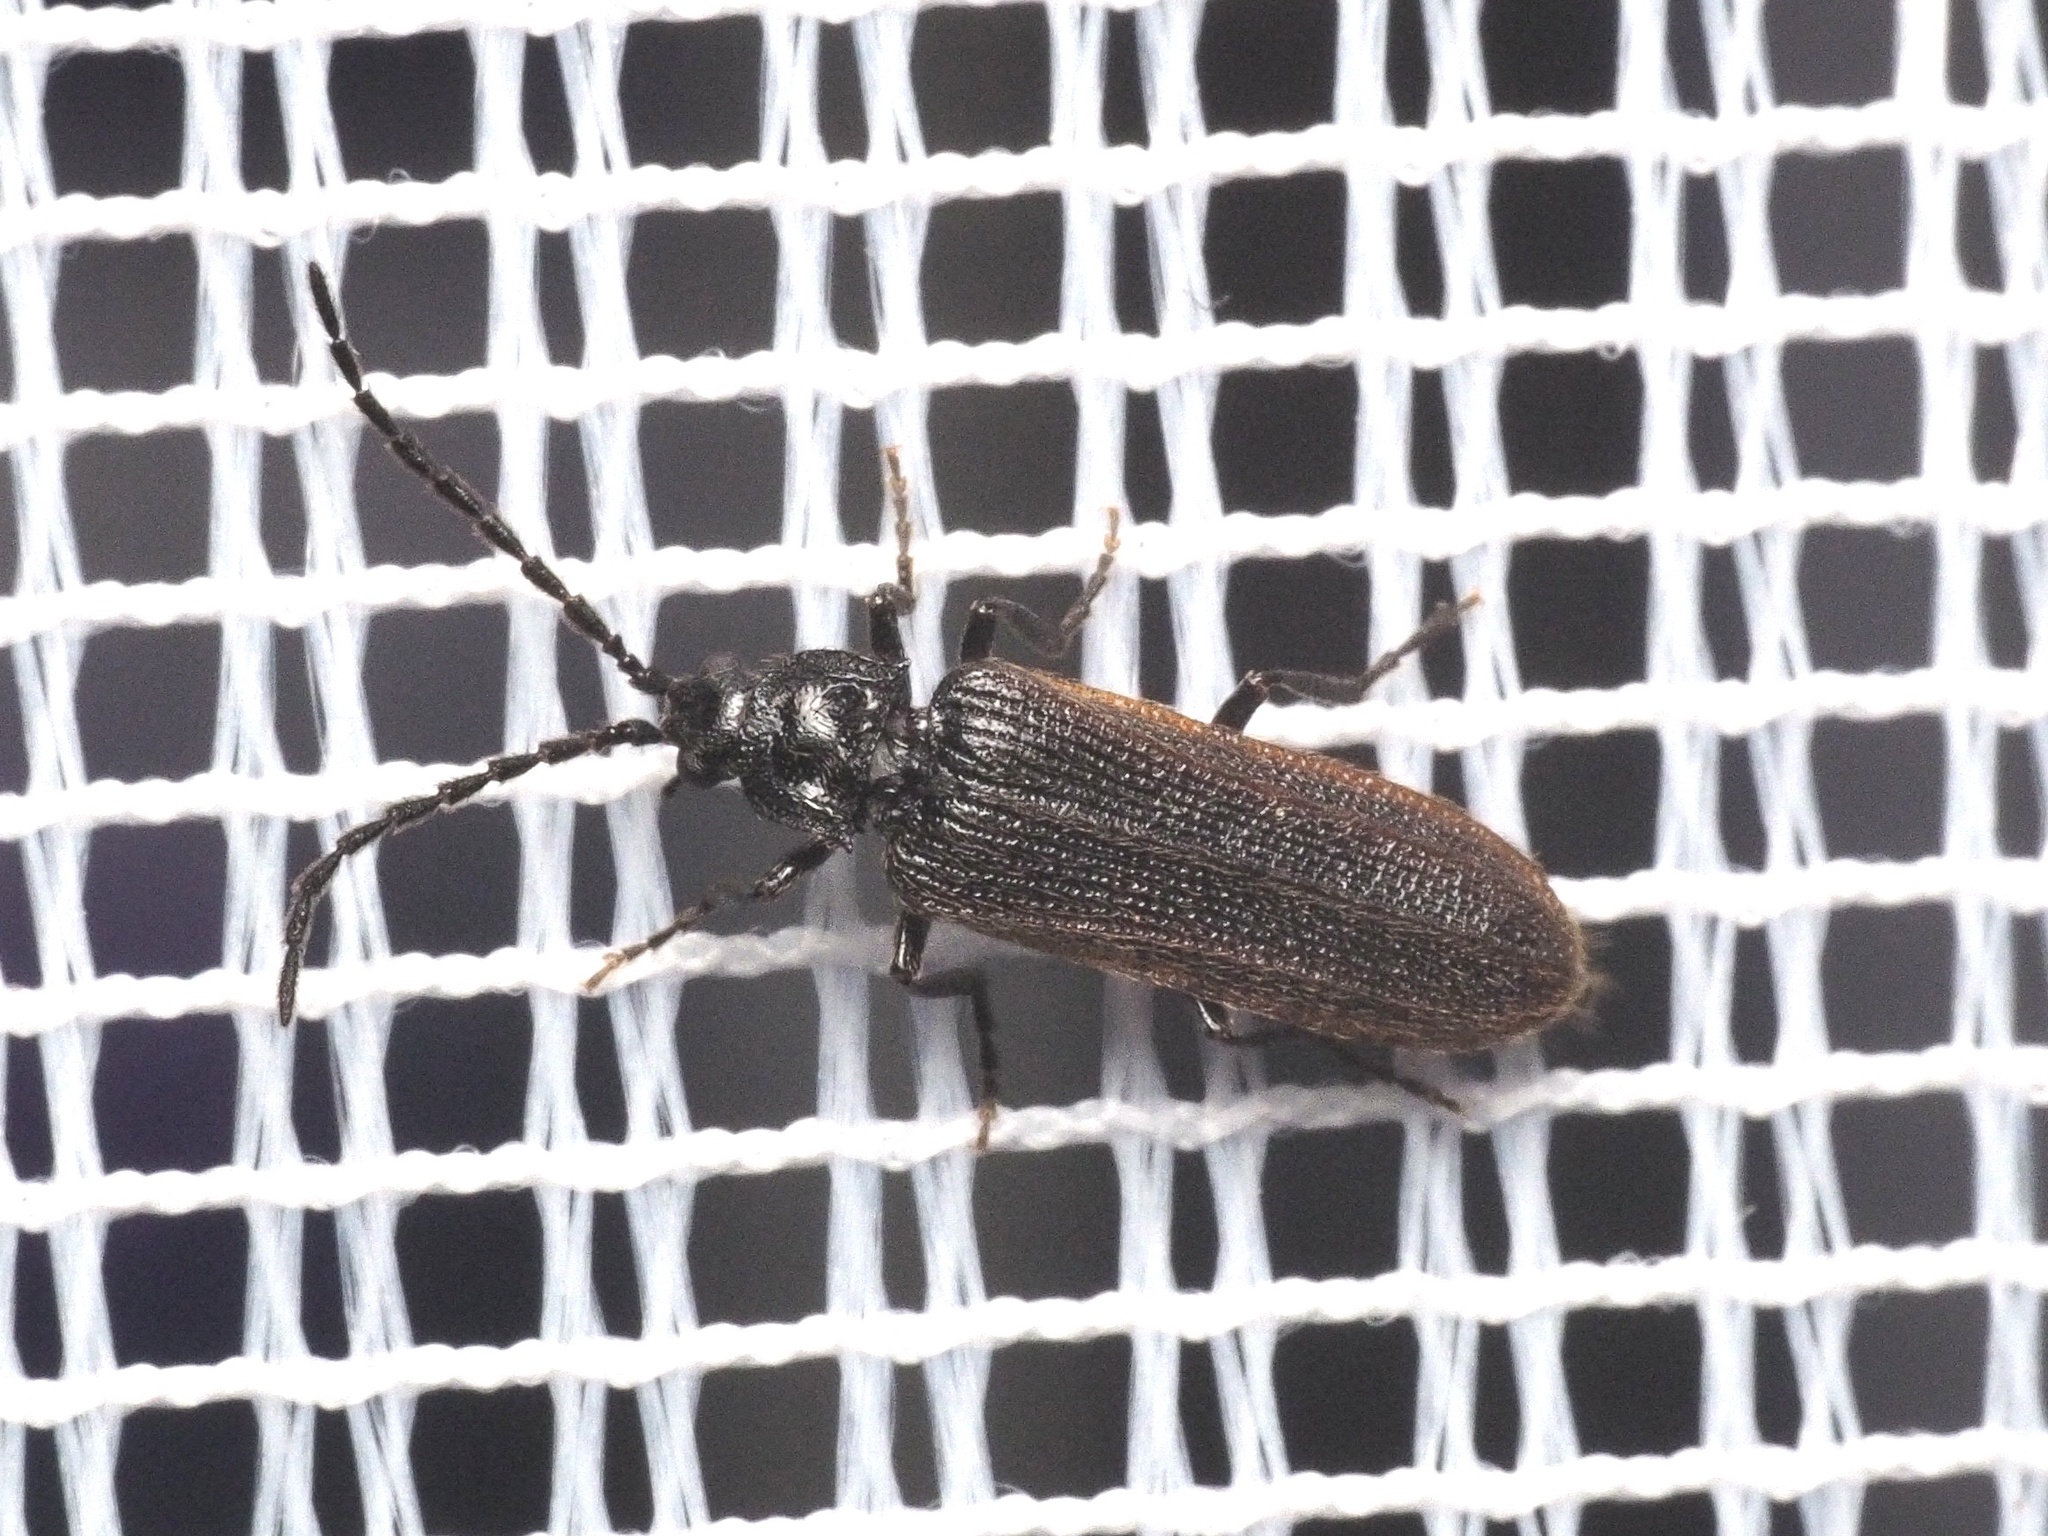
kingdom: Animalia
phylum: Arthropoda
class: Insecta
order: Coleoptera
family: Omalisidae
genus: Omalisus
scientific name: Omalisus fontisbellaquei
